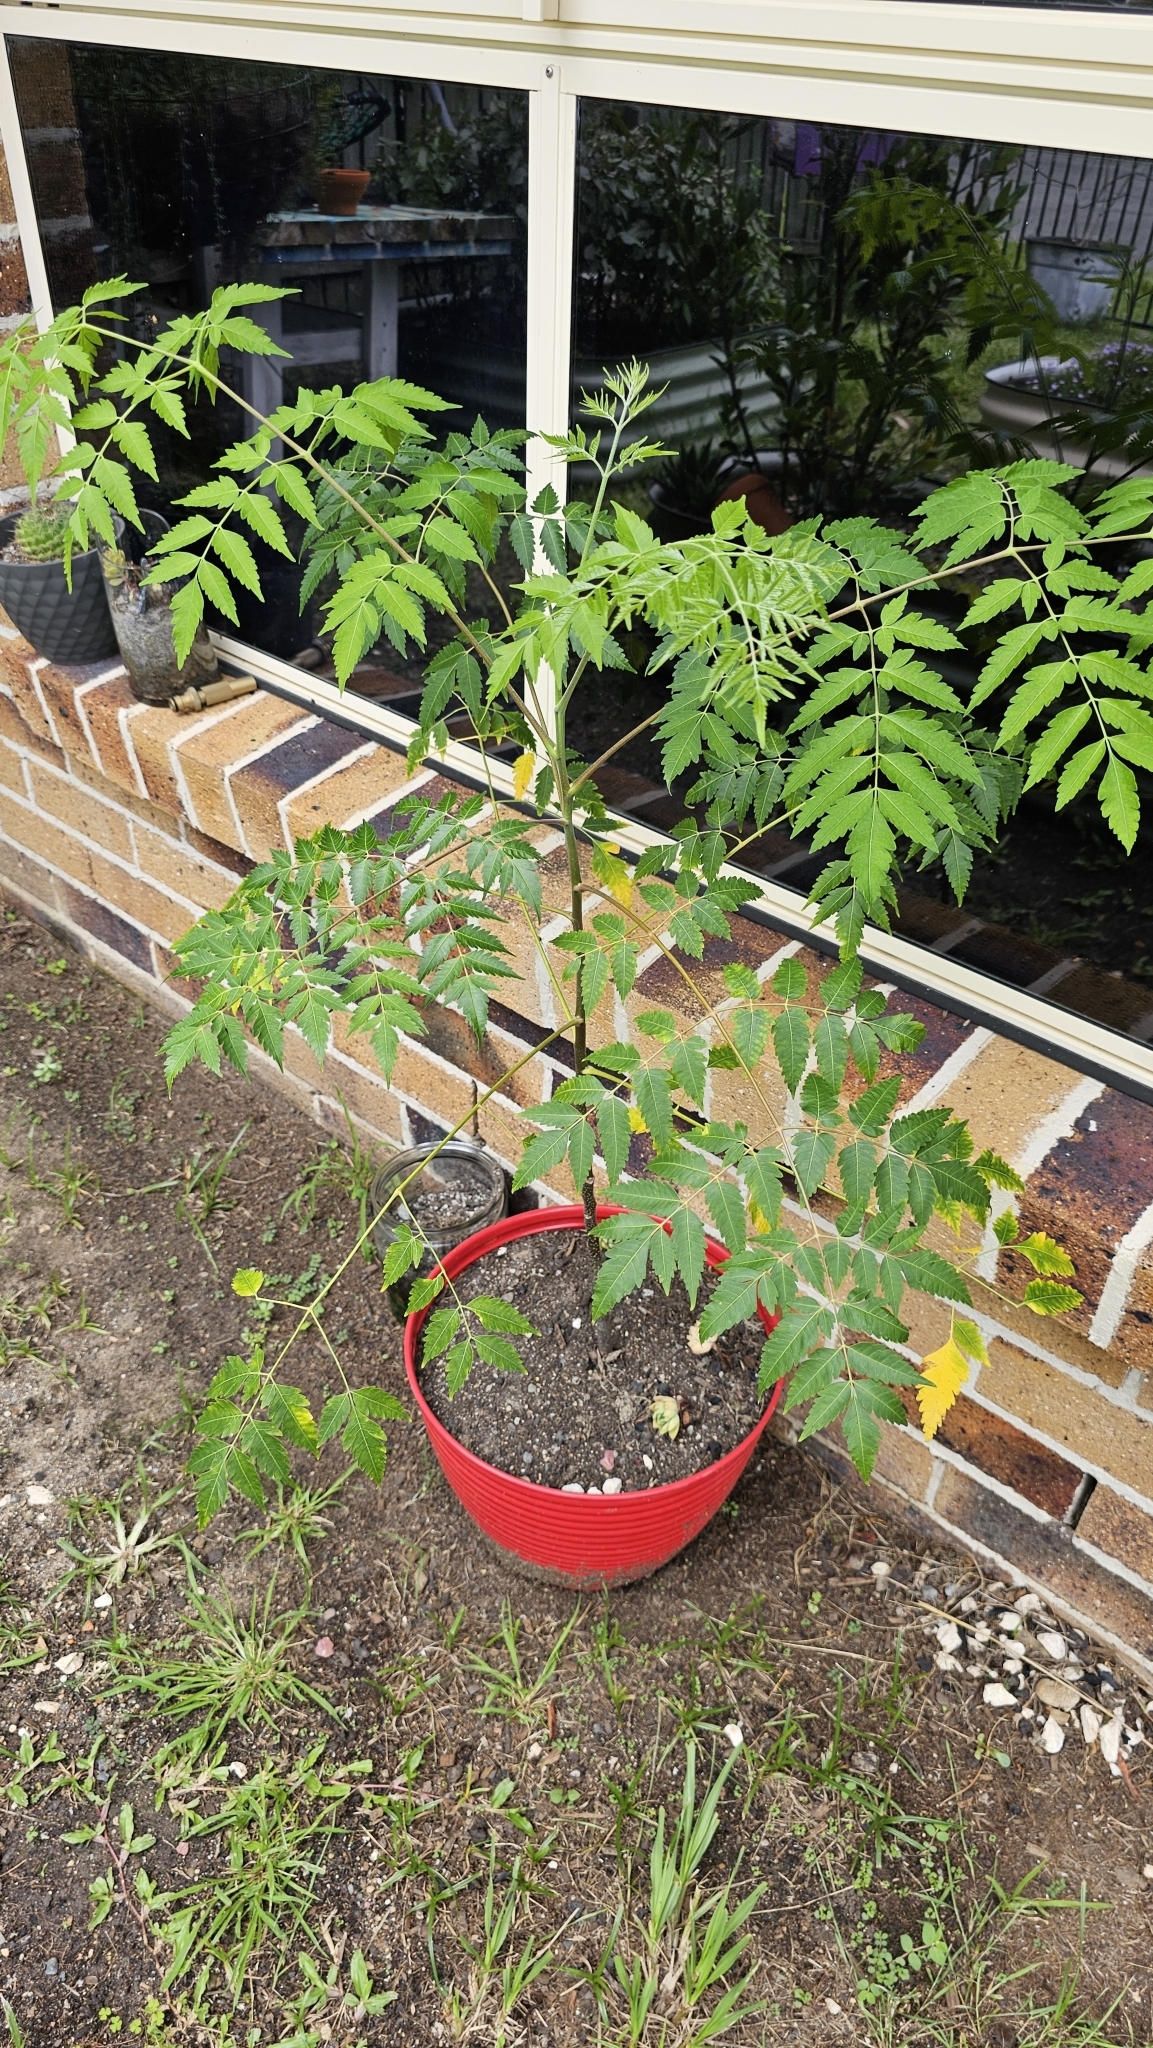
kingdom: Plantae
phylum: Tracheophyta
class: Magnoliopsida
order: Sapindales
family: Meliaceae
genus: Melia
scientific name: Melia azedarach
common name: Chinaberrytree
